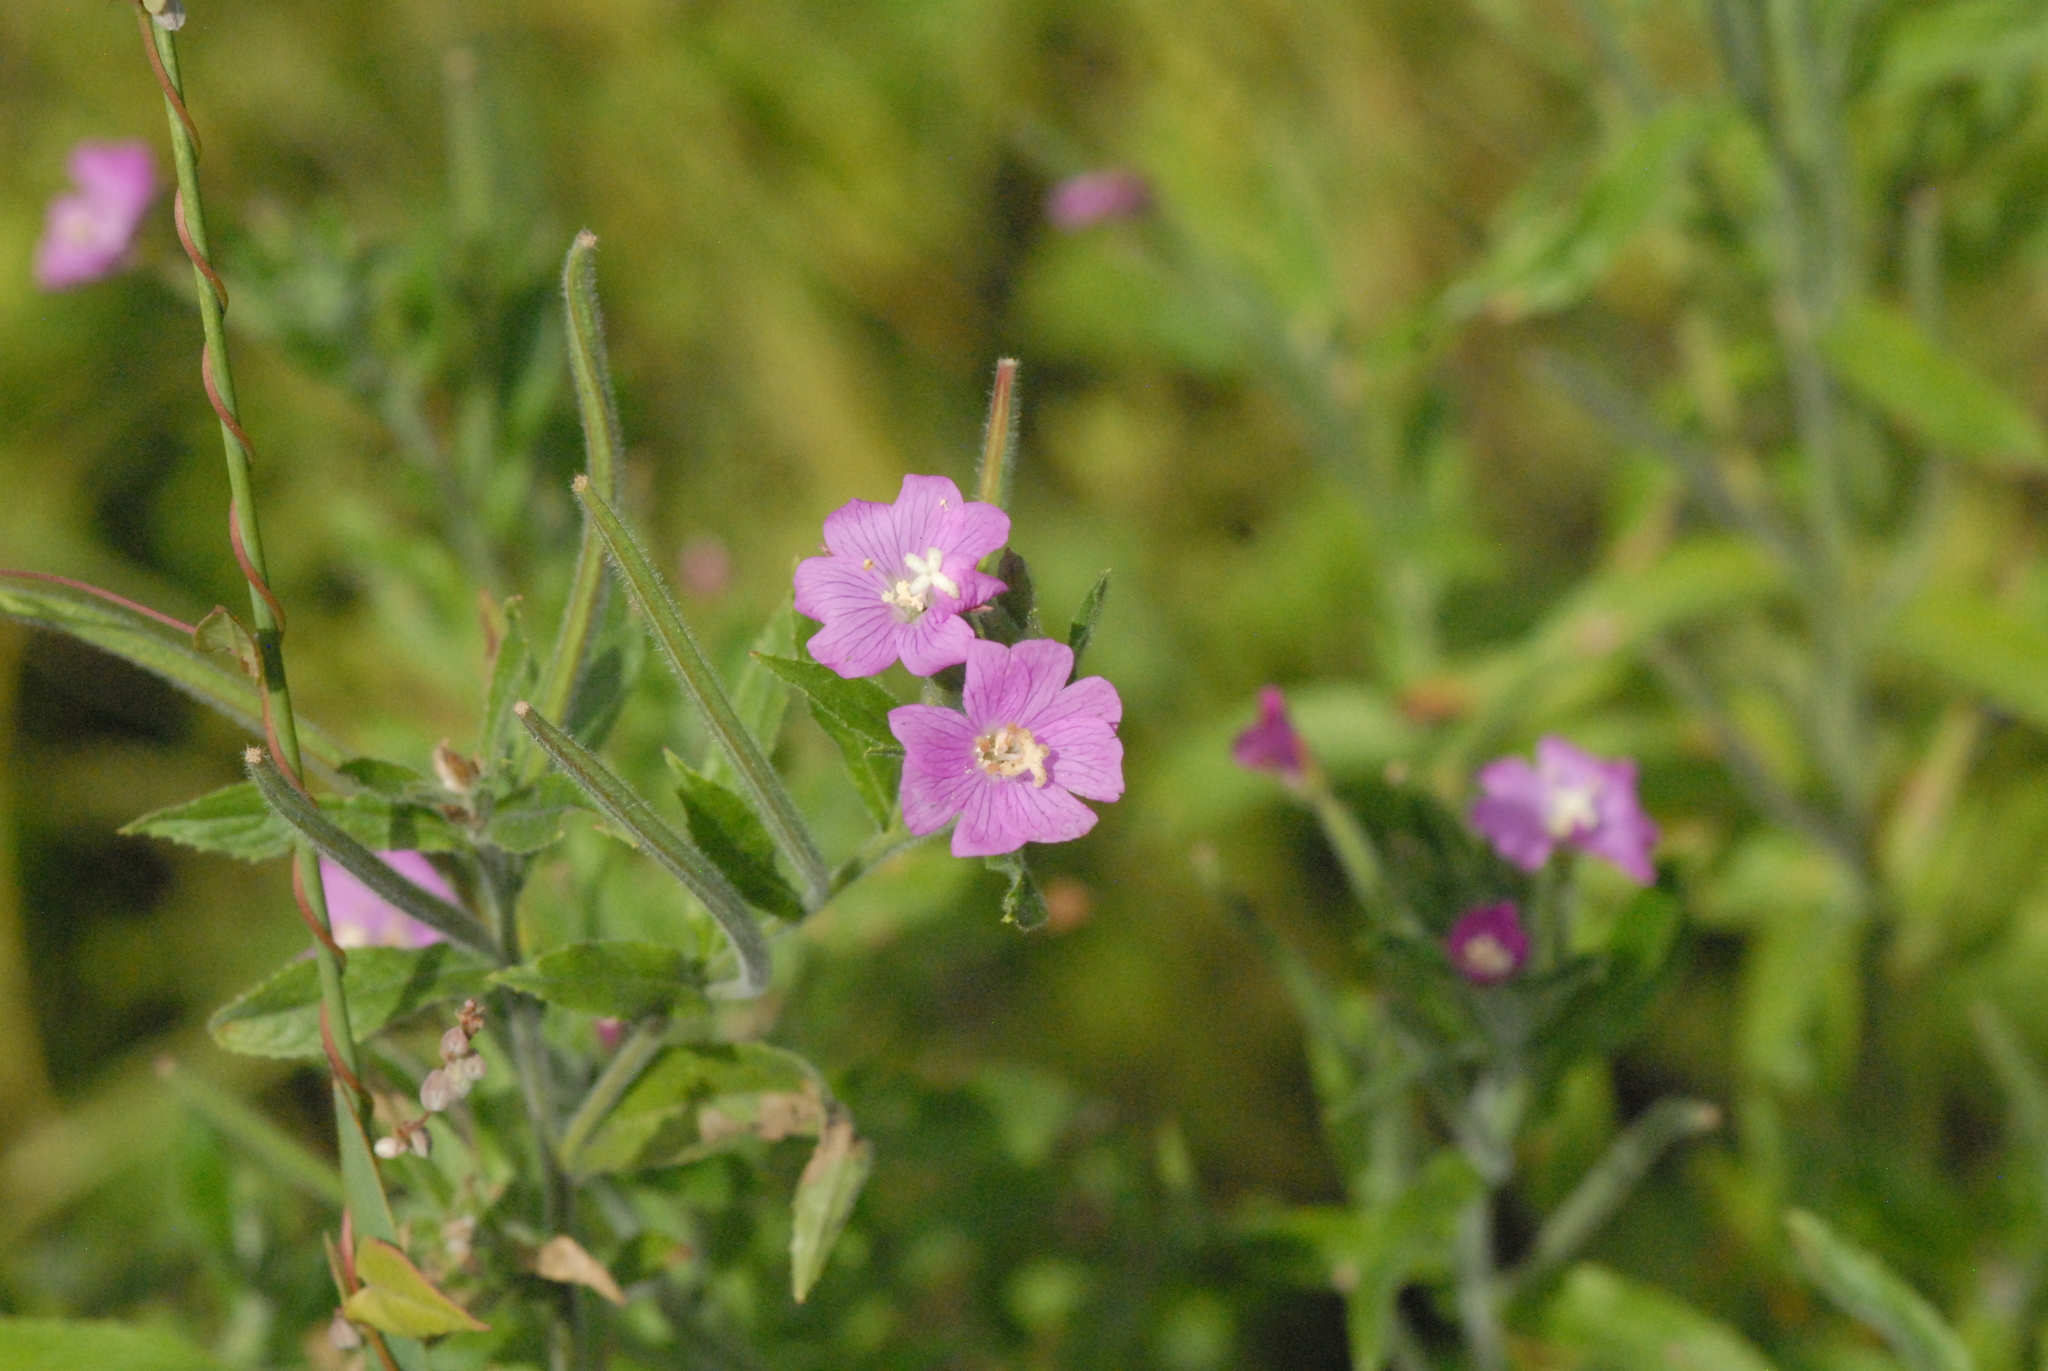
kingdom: Plantae
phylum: Tracheophyta
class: Magnoliopsida
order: Myrtales
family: Onagraceae
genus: Epilobium
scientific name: Epilobium hirsutum
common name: Great willowherb
